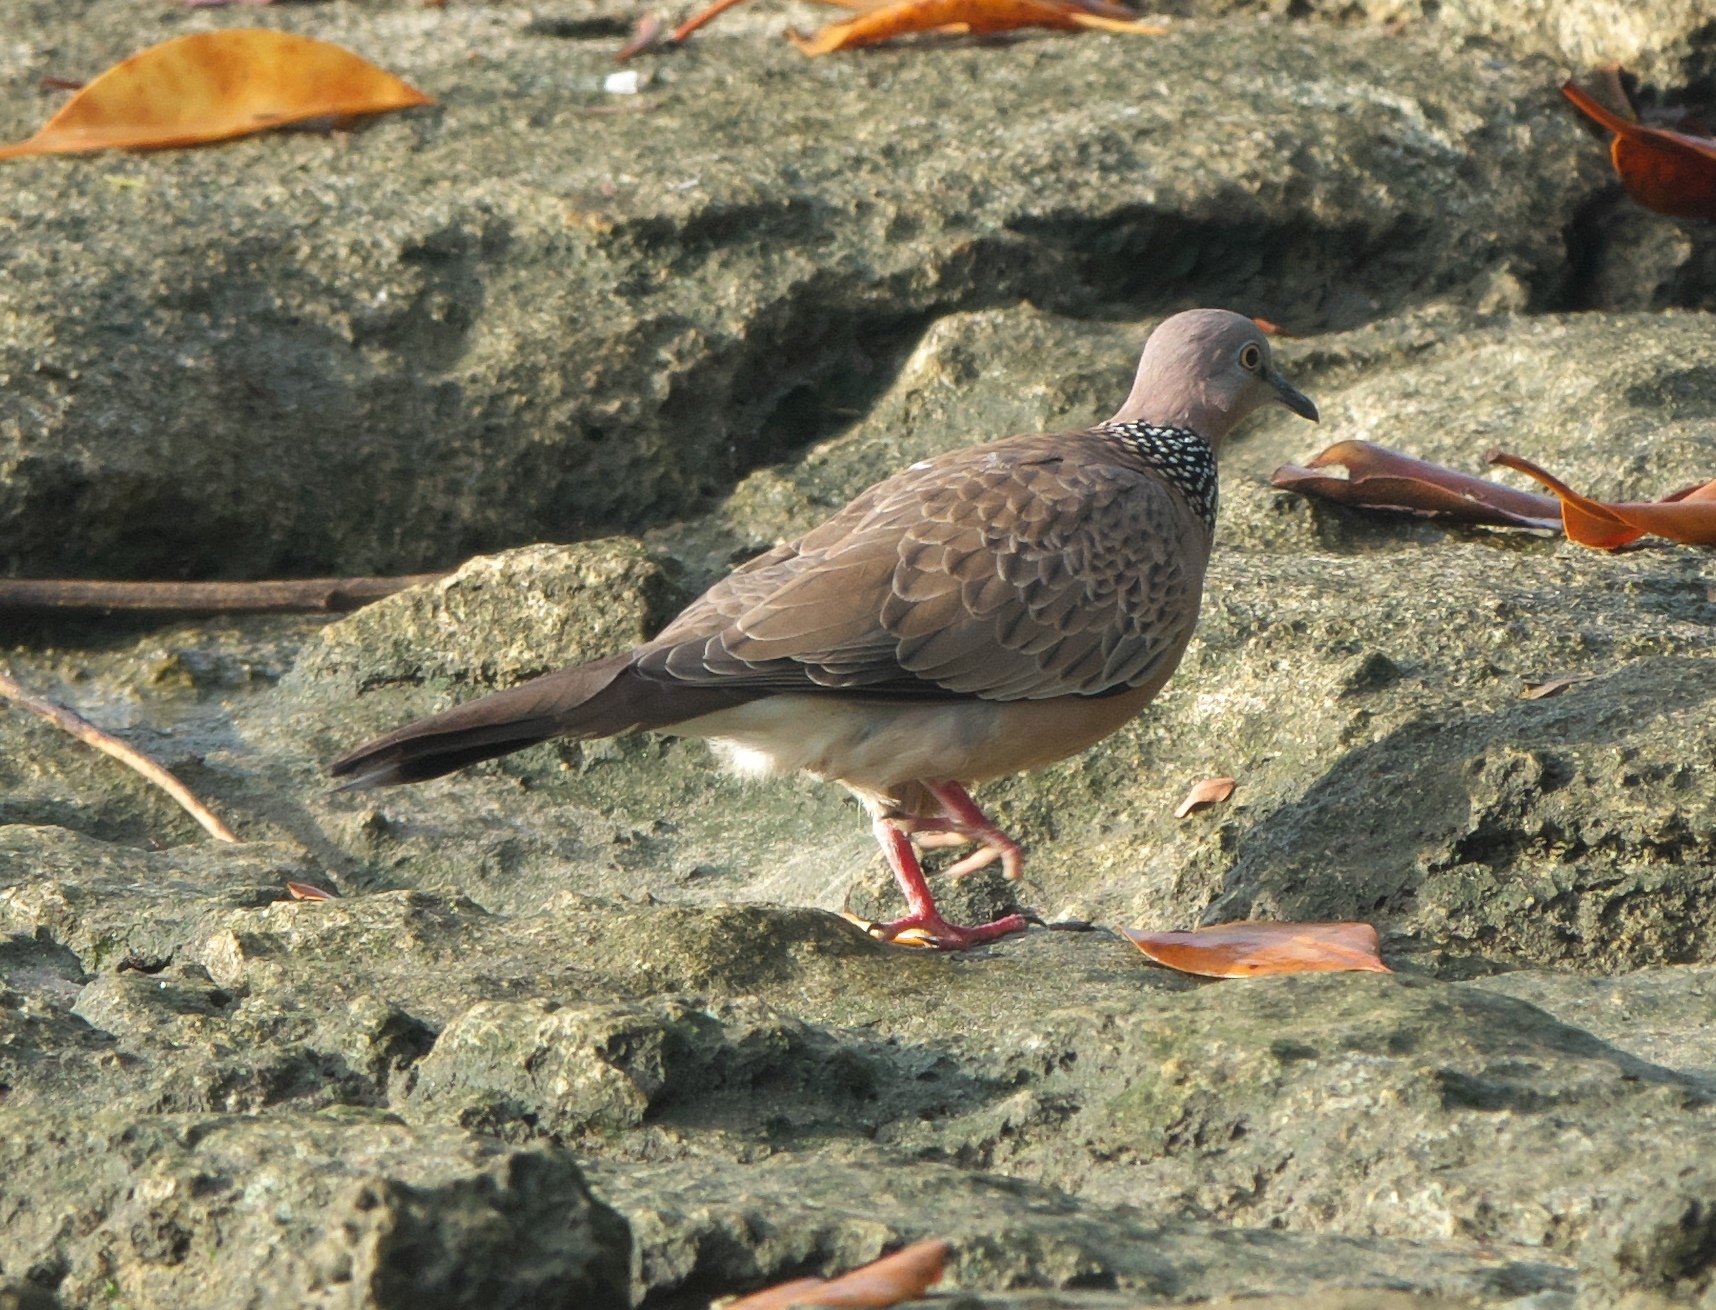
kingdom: Animalia
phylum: Chordata
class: Aves
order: Columbiformes
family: Columbidae
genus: Spilopelia
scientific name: Spilopelia chinensis
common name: Spotted dove
